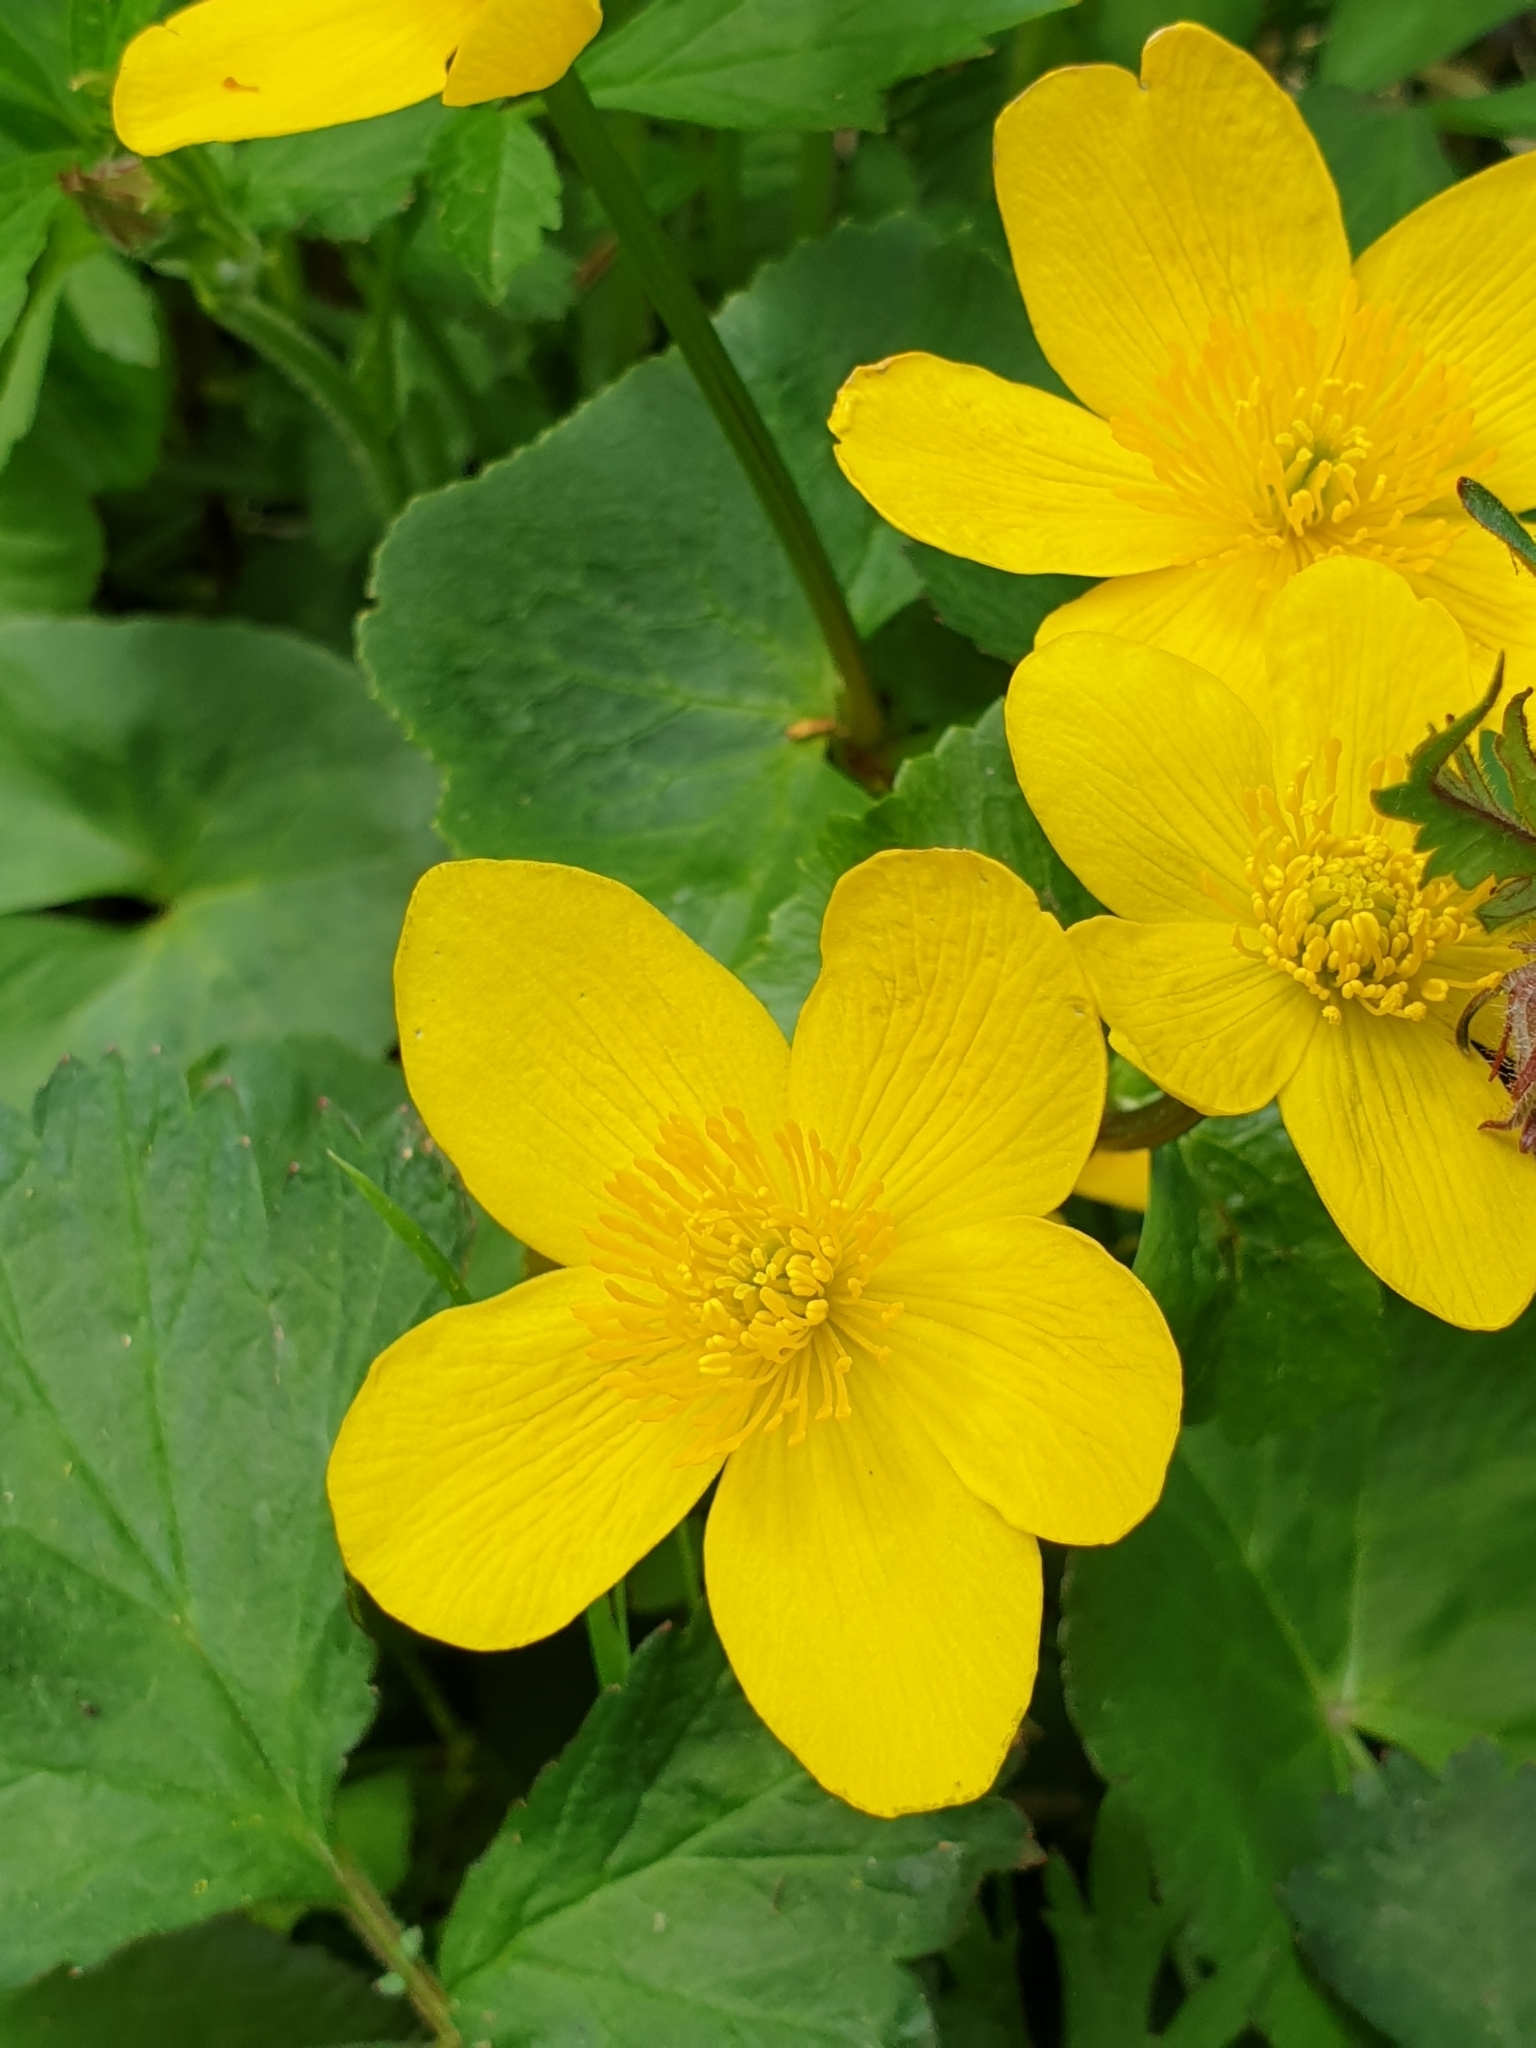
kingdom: Plantae
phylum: Tracheophyta
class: Magnoliopsida
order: Ranunculales
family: Ranunculaceae
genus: Caltha
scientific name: Caltha palustris
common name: Marsh marigold
